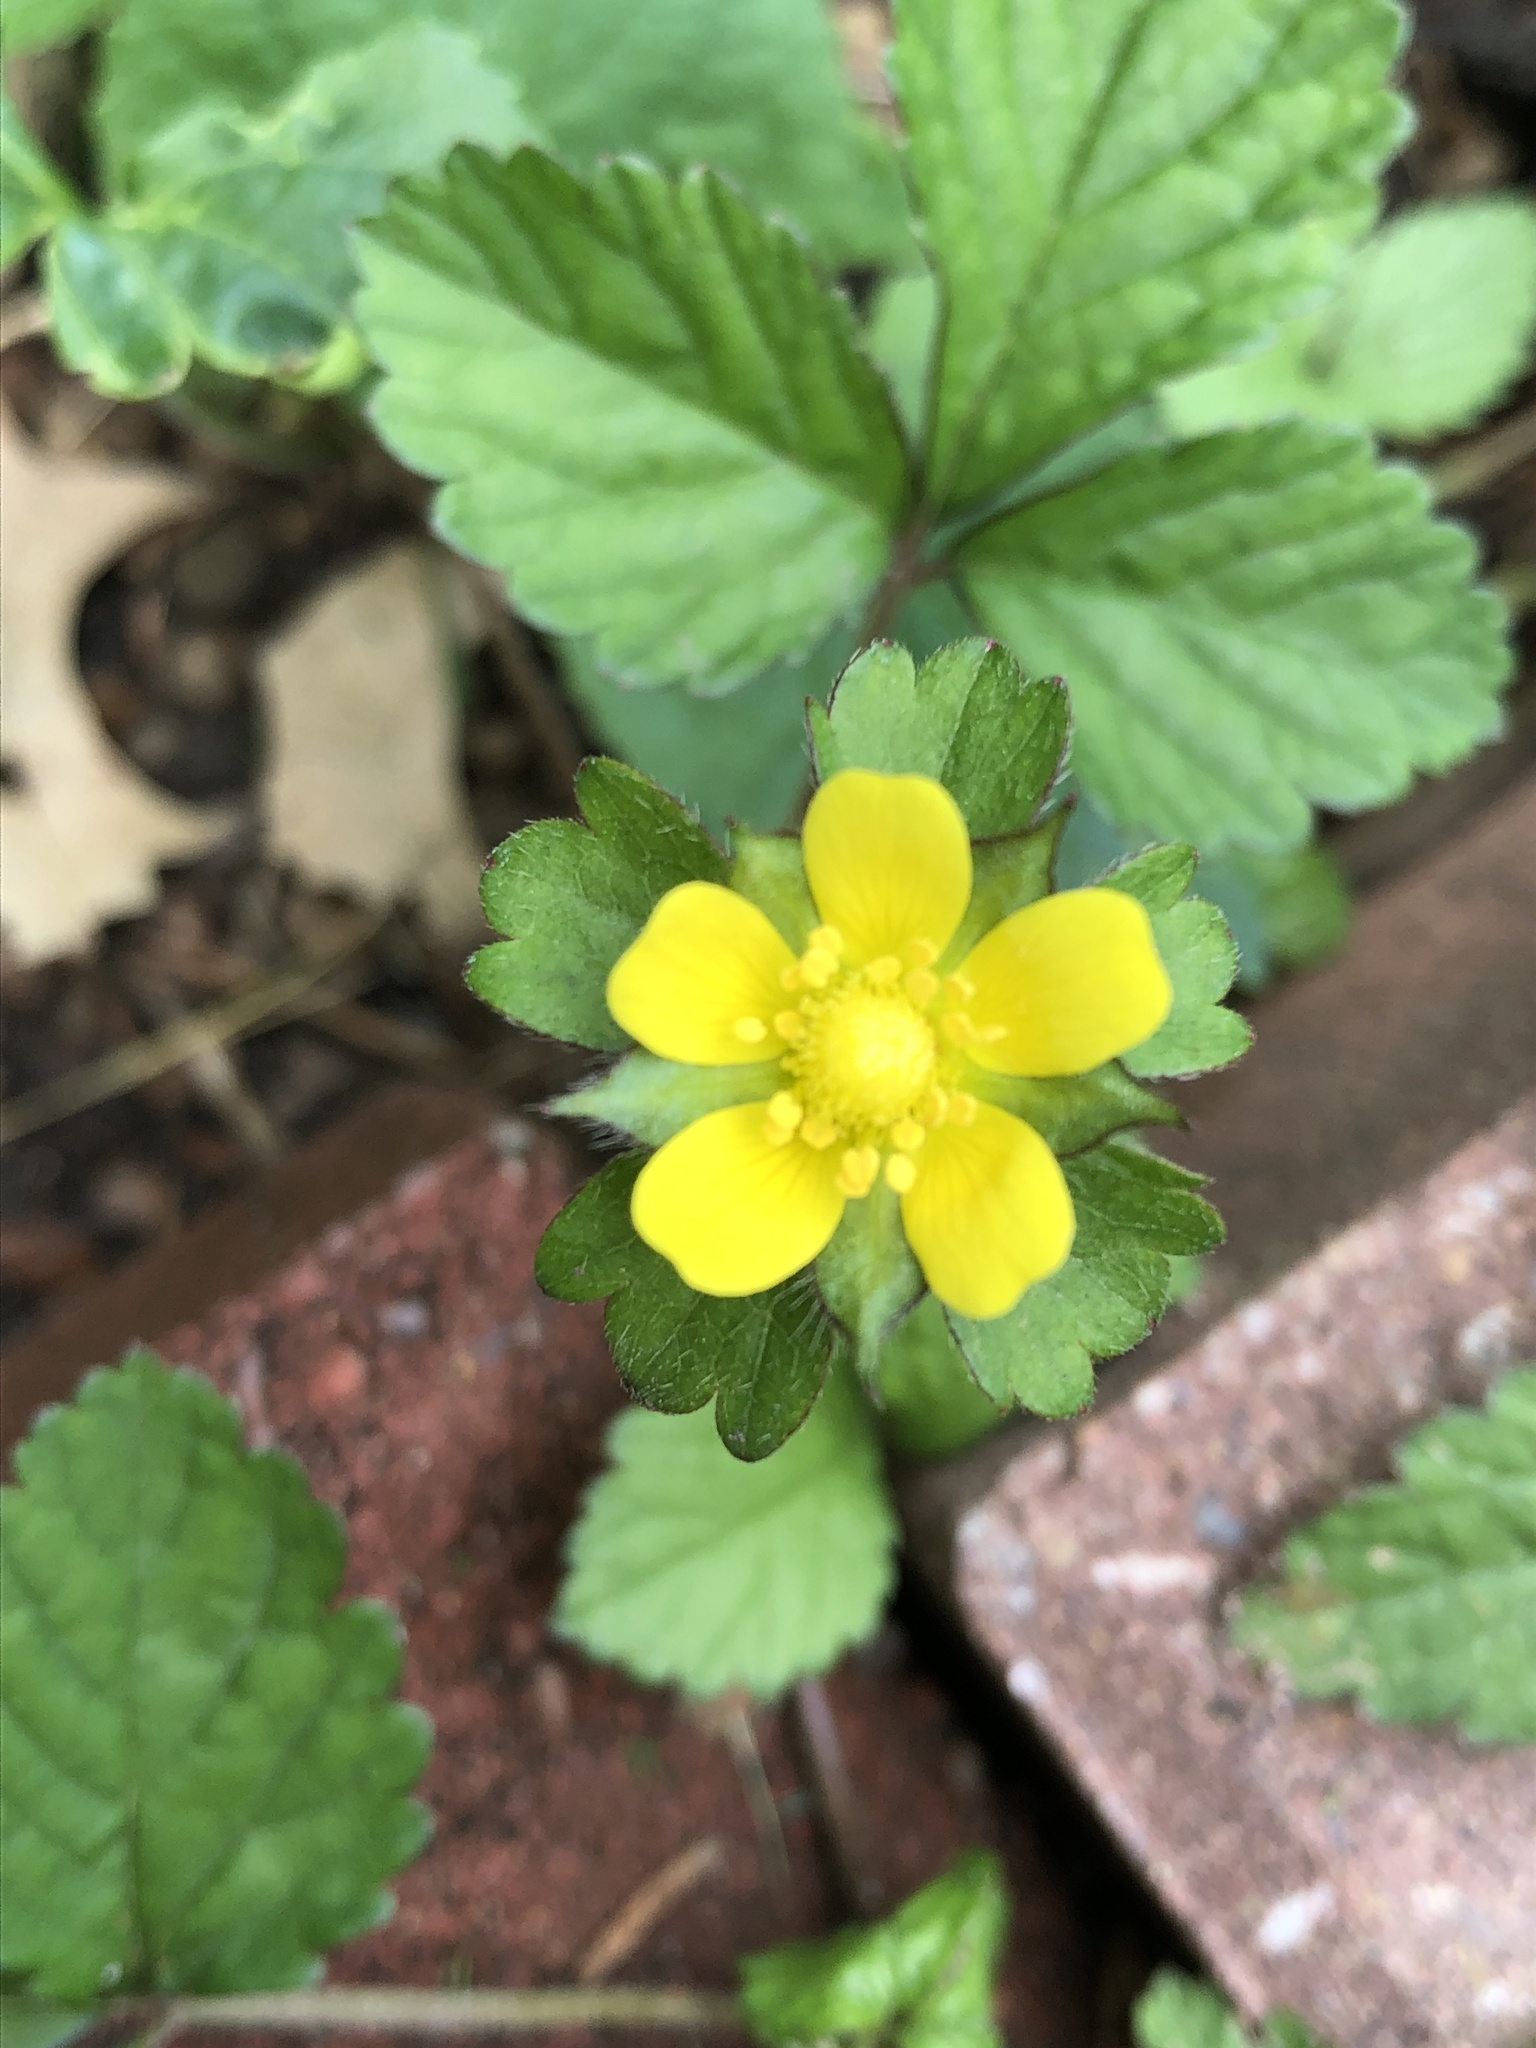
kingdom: Plantae
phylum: Tracheophyta
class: Magnoliopsida
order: Rosales
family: Rosaceae
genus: Potentilla
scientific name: Potentilla indica
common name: Yellow-flowered strawberry
